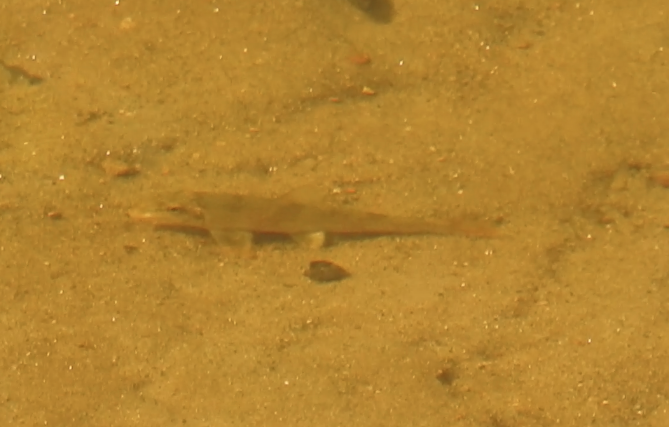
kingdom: Animalia
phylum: Chordata
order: Cypriniformes
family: Catostomidae
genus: Hypentelium
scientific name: Hypentelium etowanum
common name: Alabama hog sucker
